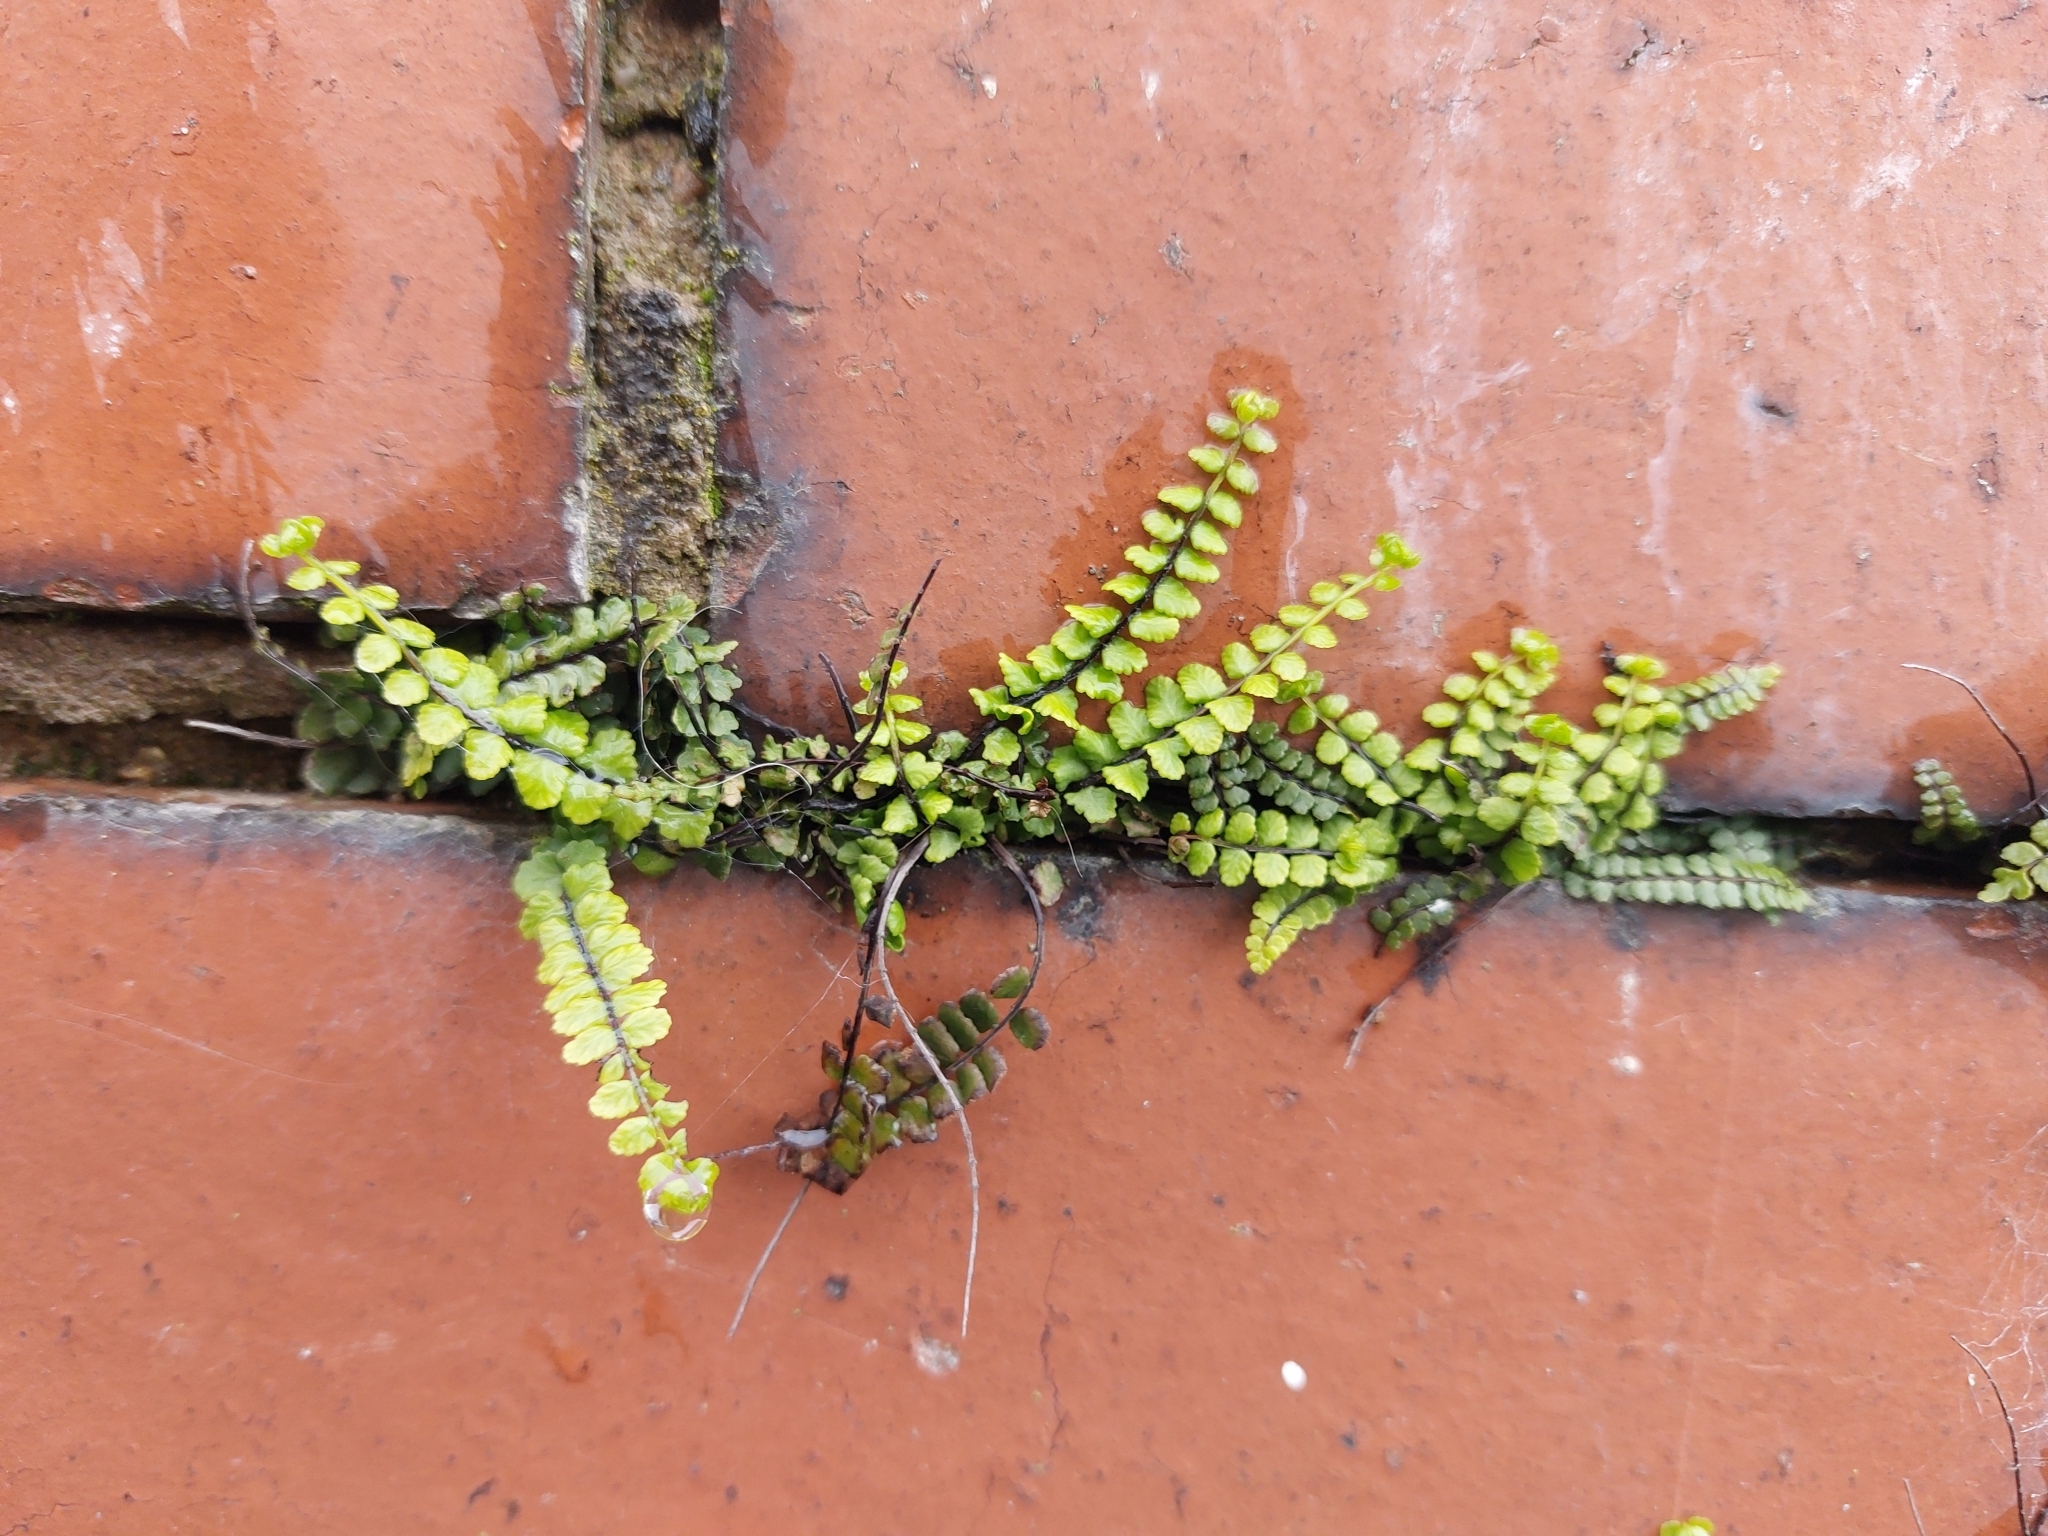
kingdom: Plantae
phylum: Tracheophyta
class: Polypodiopsida
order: Polypodiales
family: Aspleniaceae
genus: Asplenium
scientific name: Asplenium trichomanes
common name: Maidenhair spleenwort
